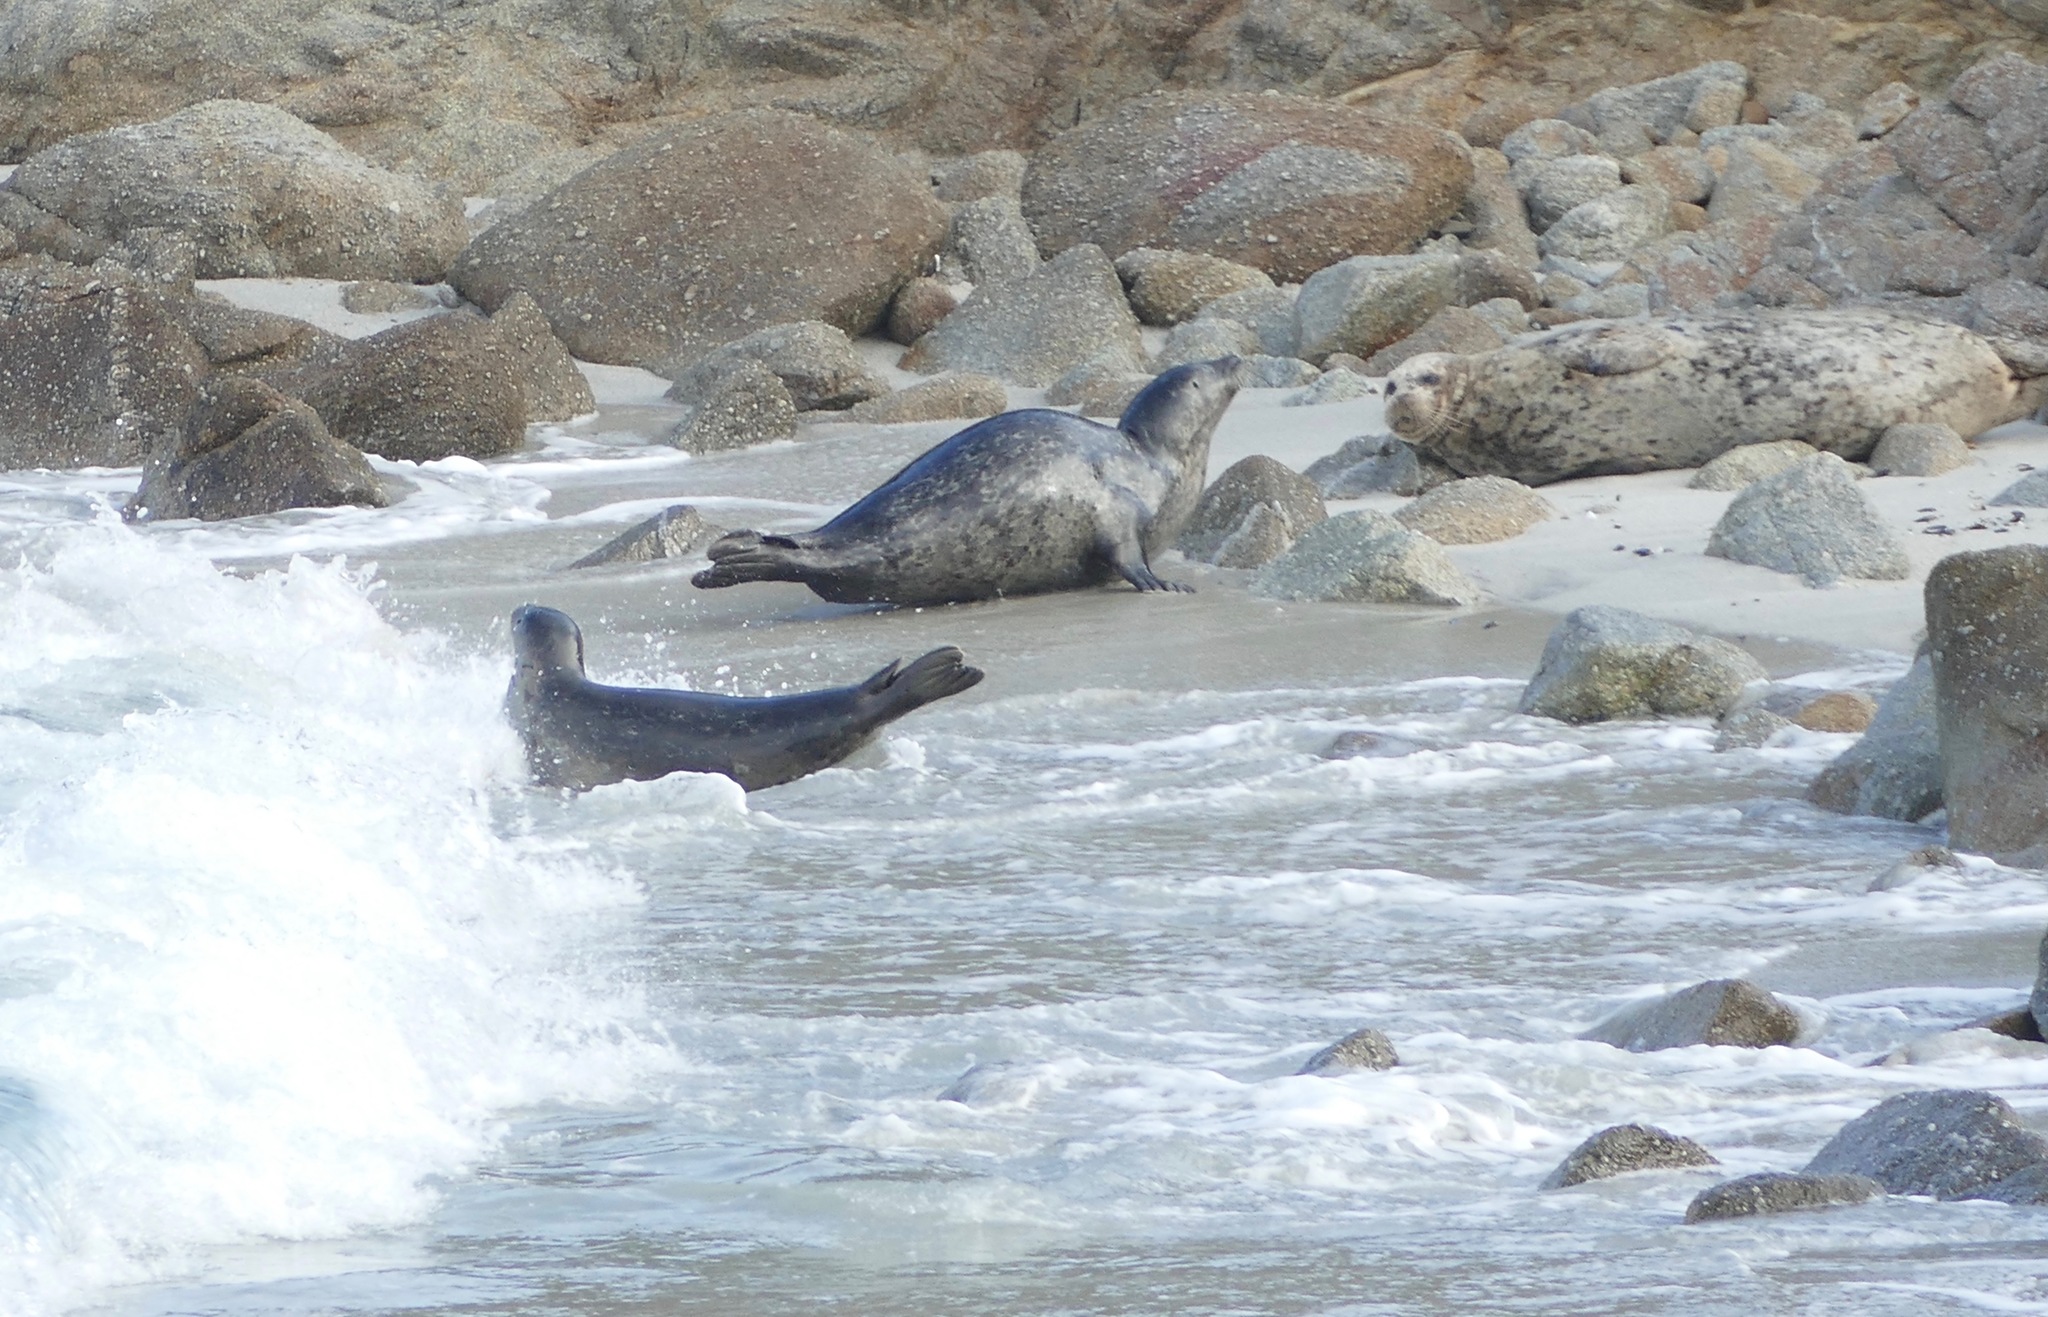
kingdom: Animalia
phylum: Chordata
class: Mammalia
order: Carnivora
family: Phocidae
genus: Phoca
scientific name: Phoca vitulina
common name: Harbor seal
